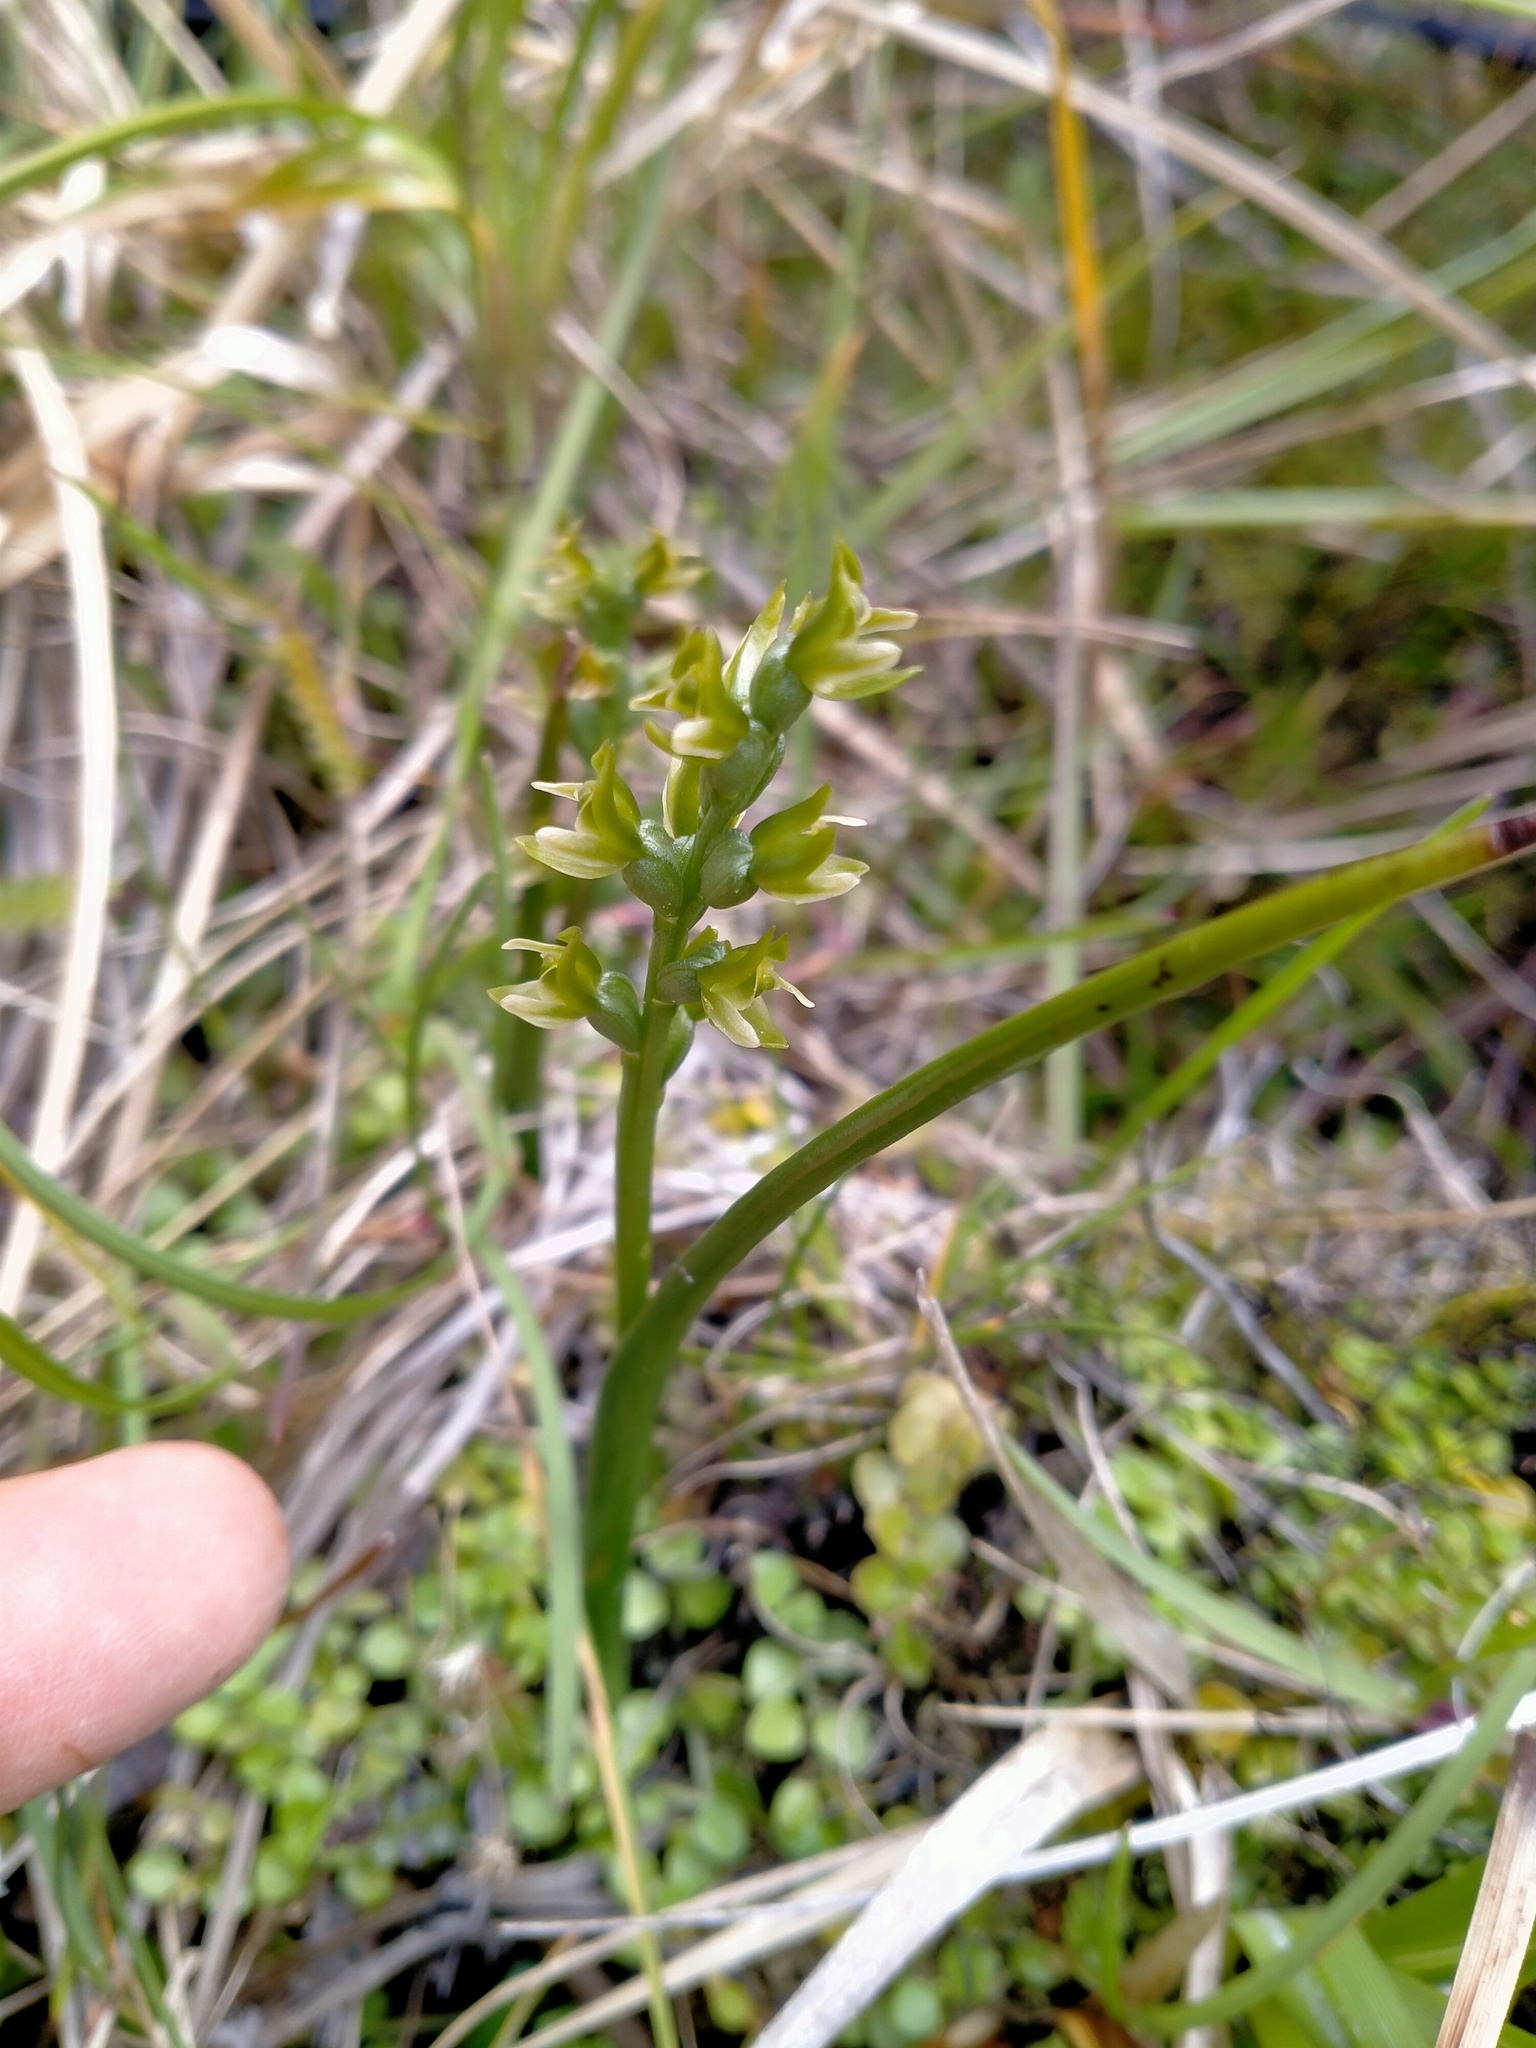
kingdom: Plantae
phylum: Tracheophyta
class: Liliopsida
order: Asparagales
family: Orchidaceae
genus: Prasophyllum
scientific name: Prasophyllum colensoi
